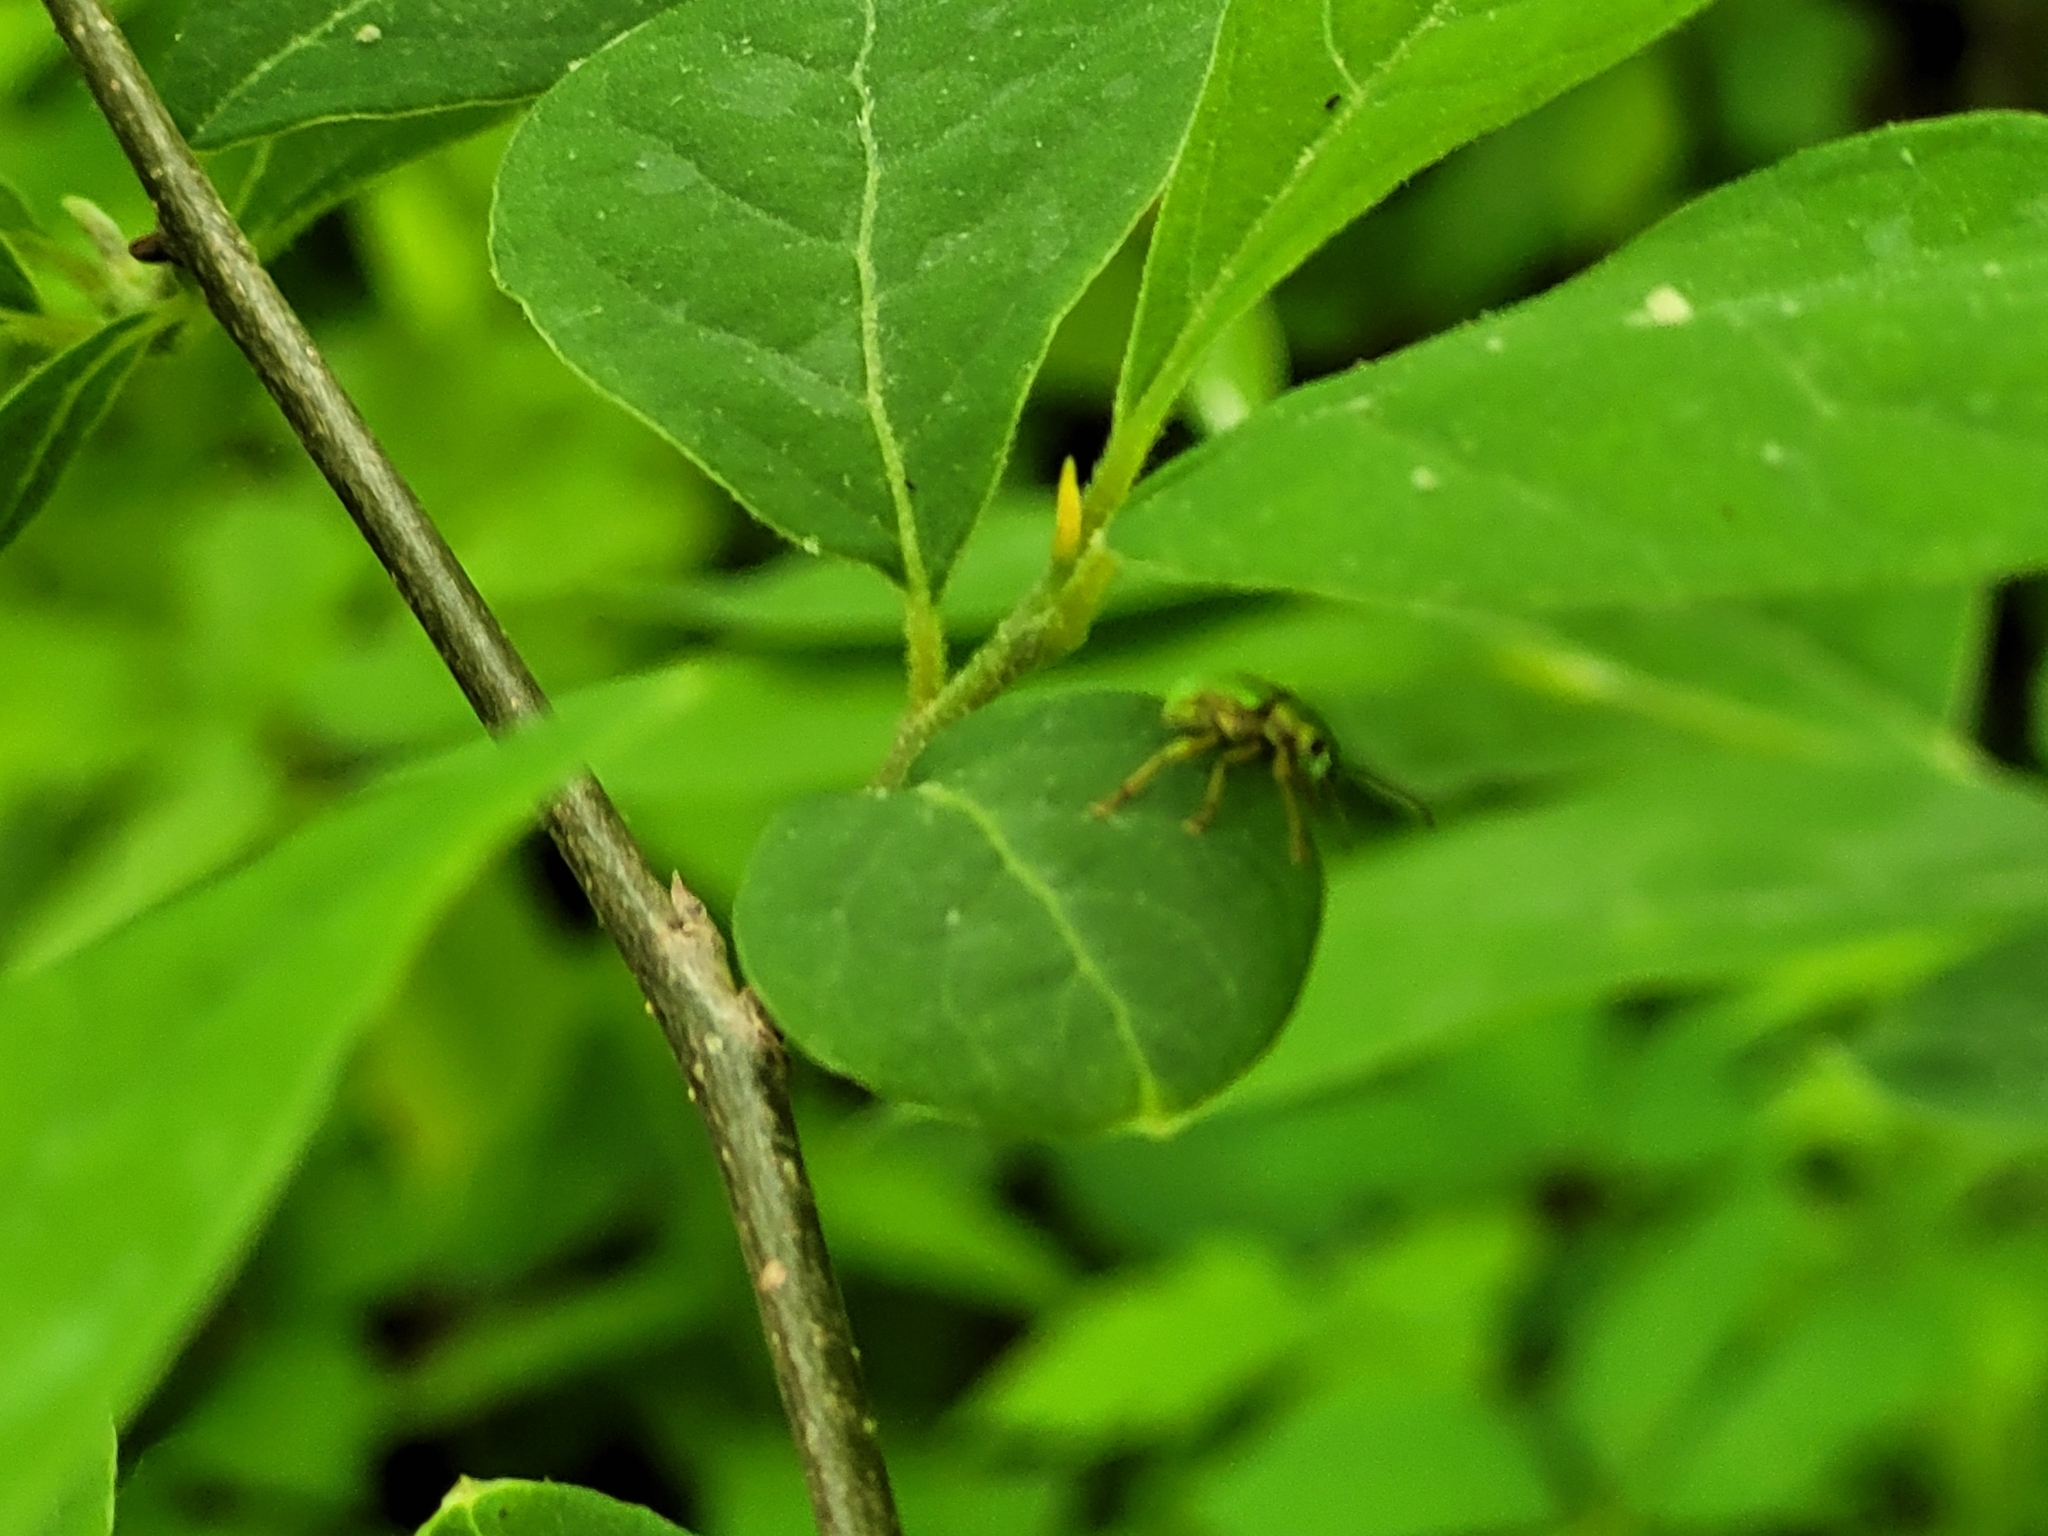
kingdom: Animalia
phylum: Arthropoda
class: Insecta
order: Coleoptera
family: Curculionidae
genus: Polydrusus
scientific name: Polydrusus formosus
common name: Weevil
